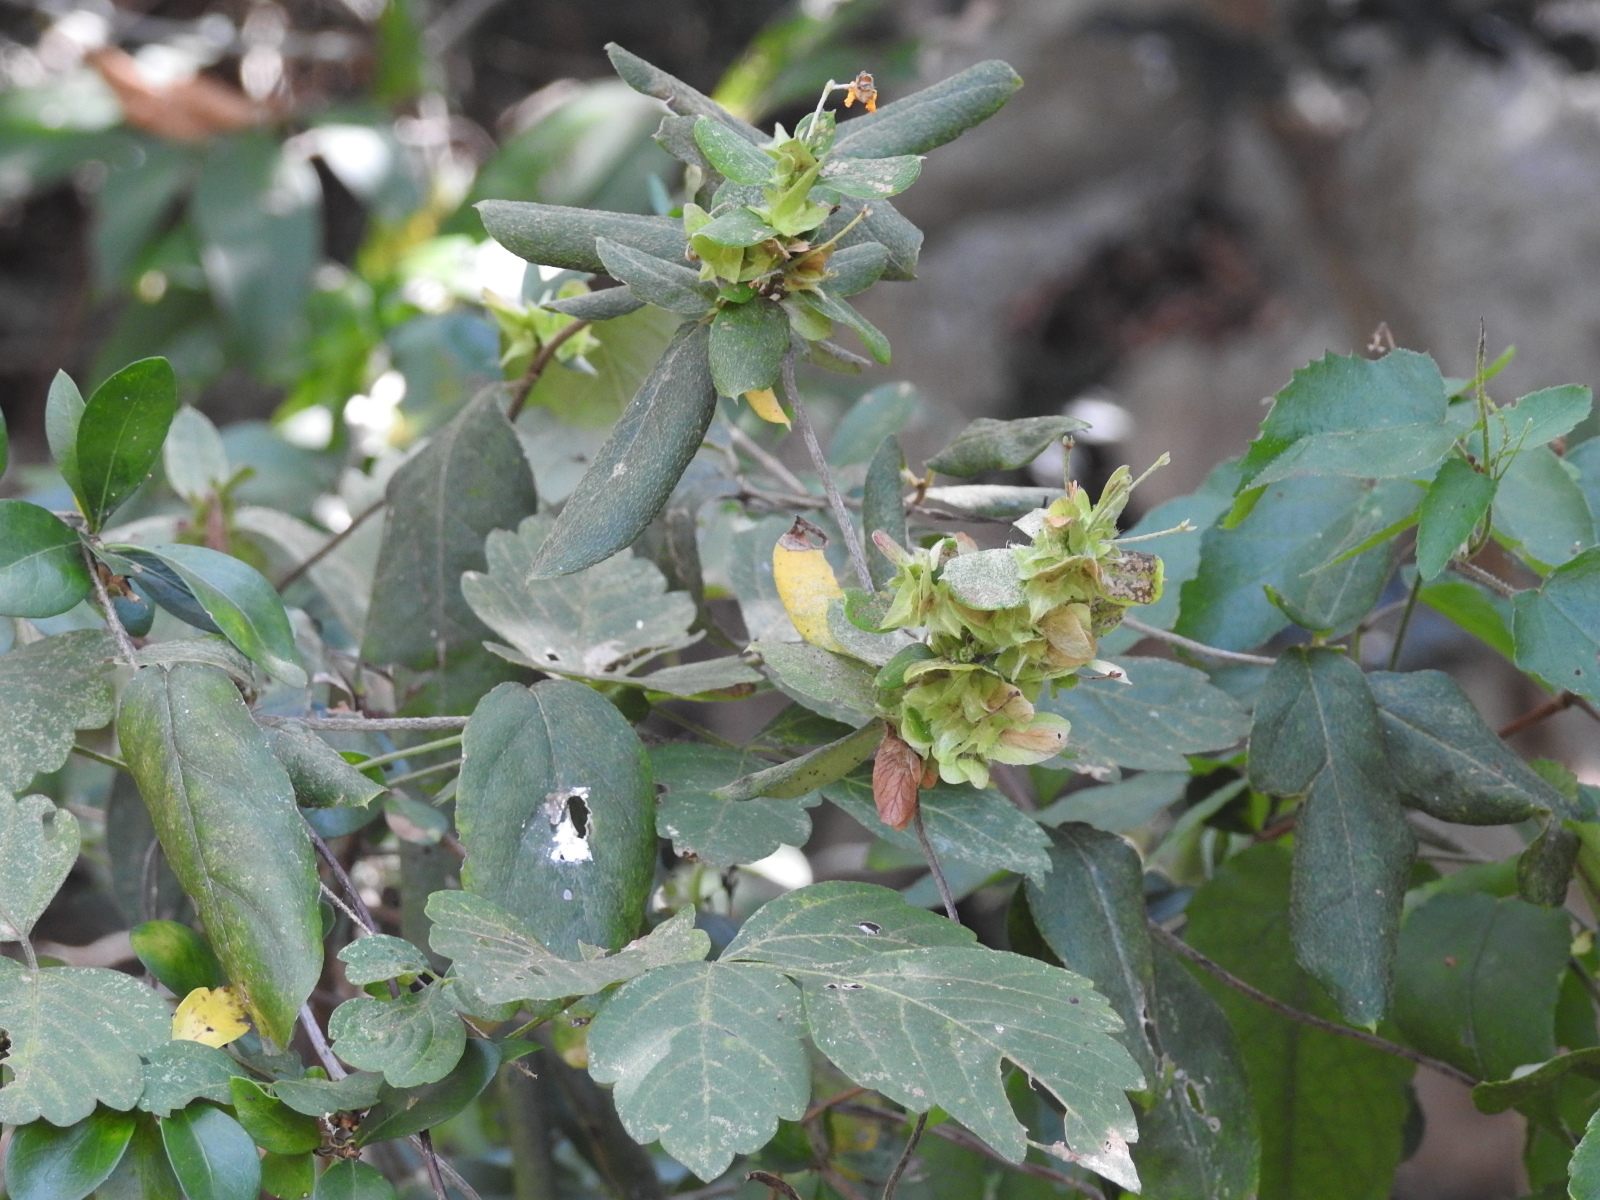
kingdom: Plantae
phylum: Tracheophyta
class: Magnoliopsida
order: Malpighiales
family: Malpighiaceae
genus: Gaudichaudia
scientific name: Gaudichaudia cynanchoides
